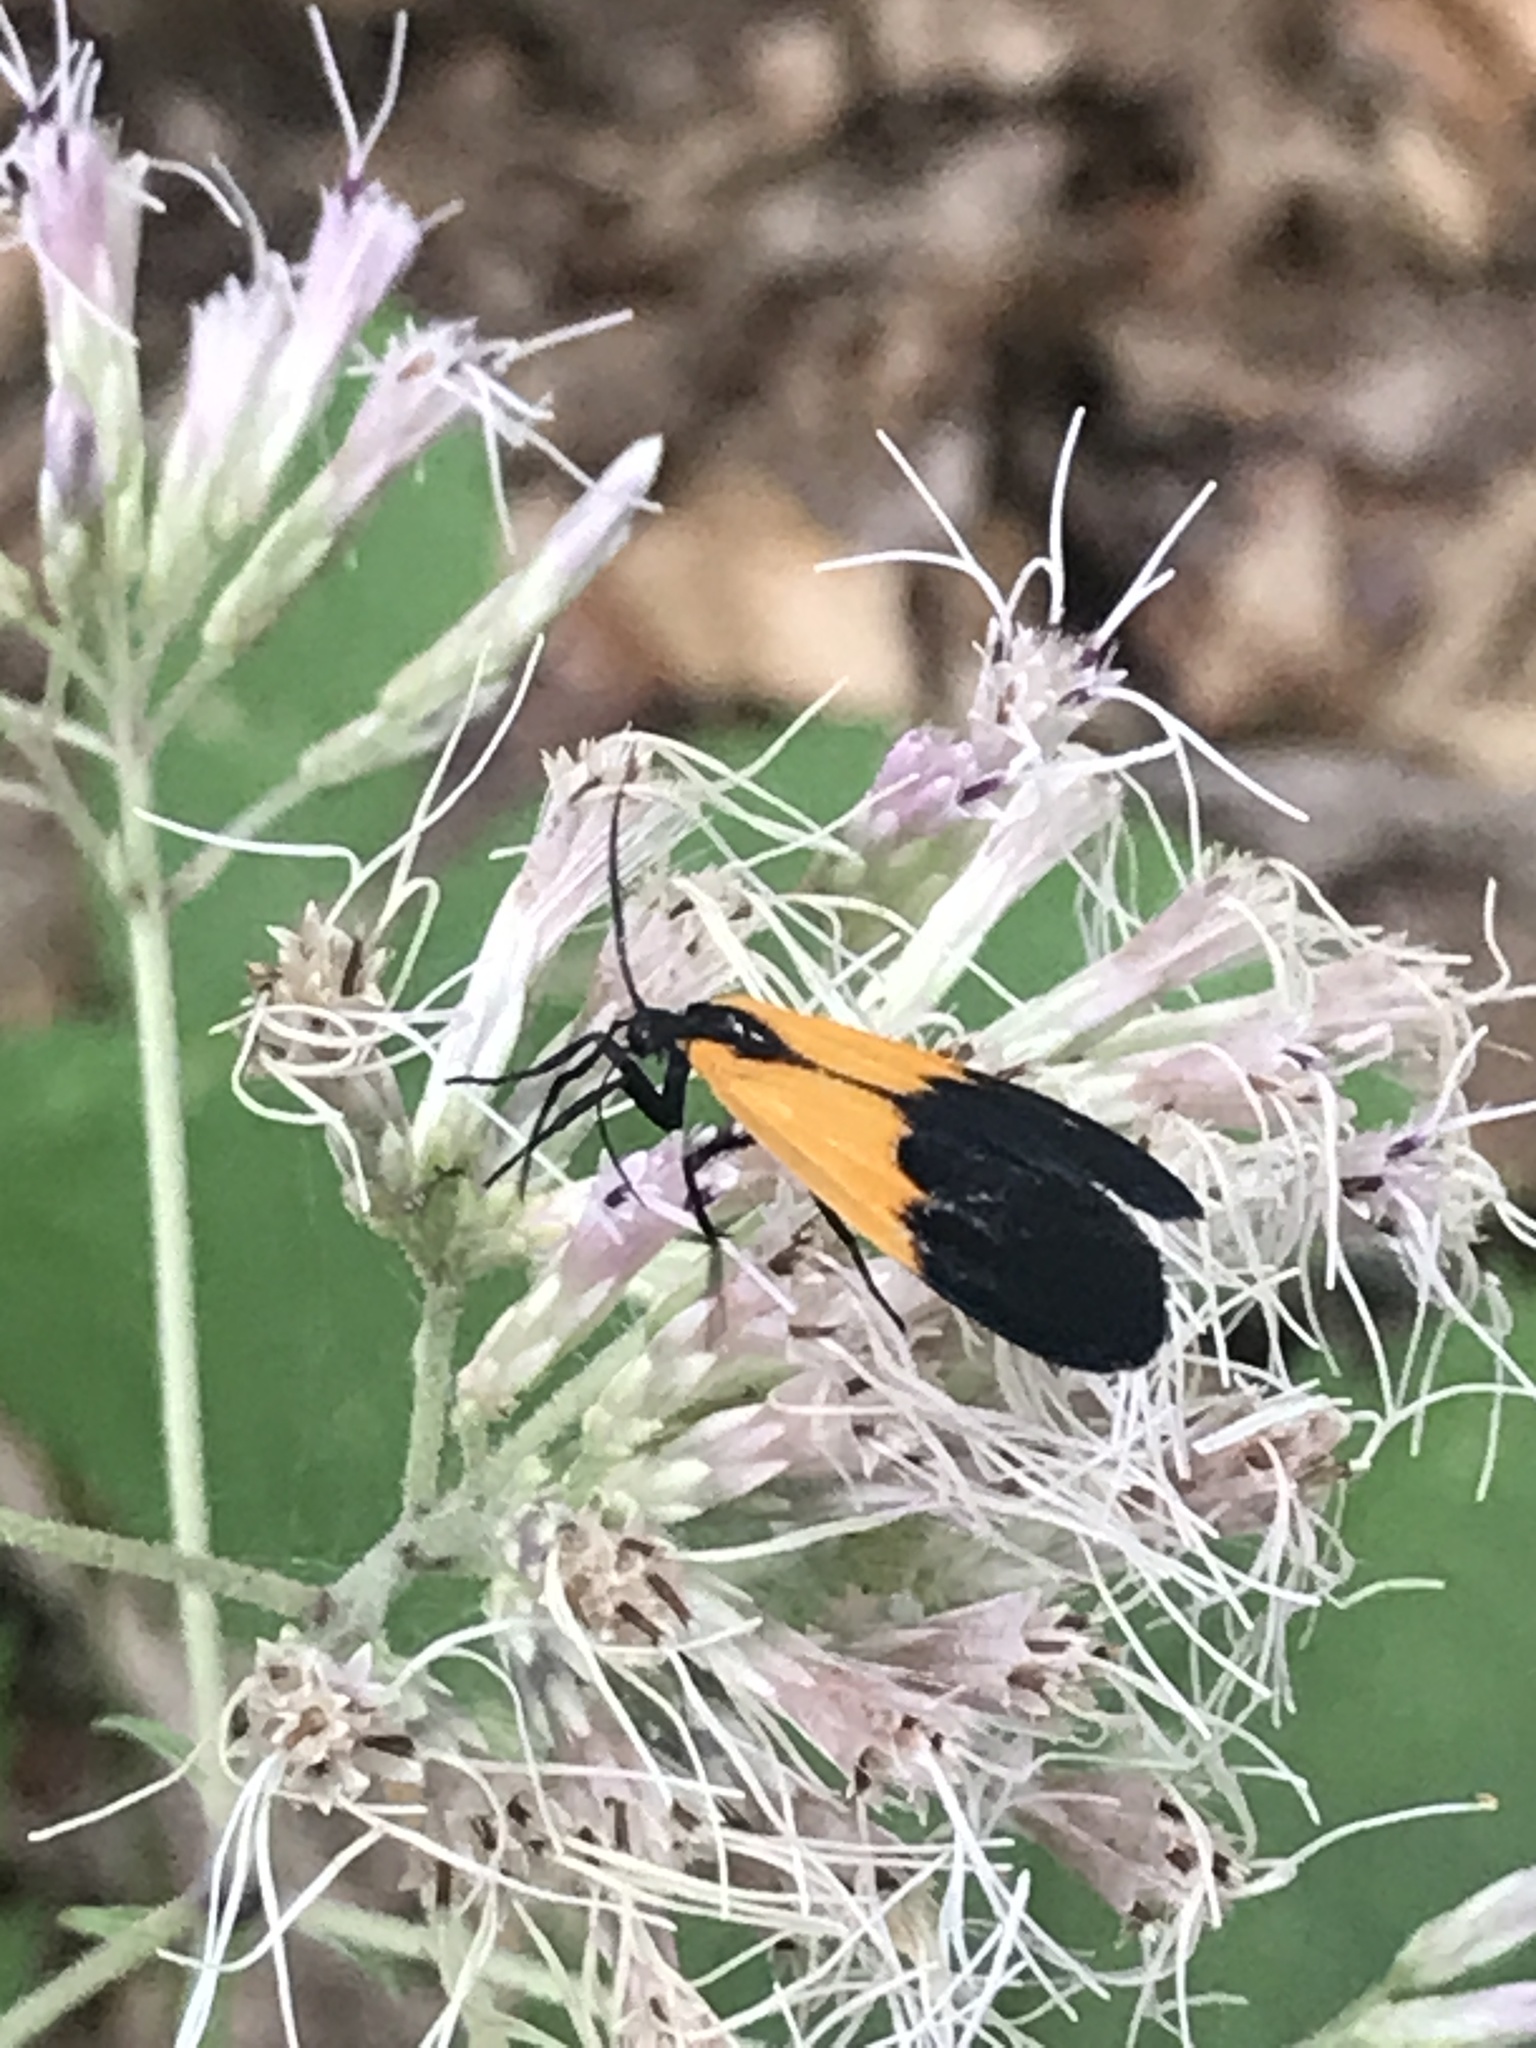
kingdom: Animalia
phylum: Arthropoda
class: Insecta
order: Lepidoptera
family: Erebidae
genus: Lycomorpha
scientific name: Lycomorpha pholus
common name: Black-and-yellow lichen moth
